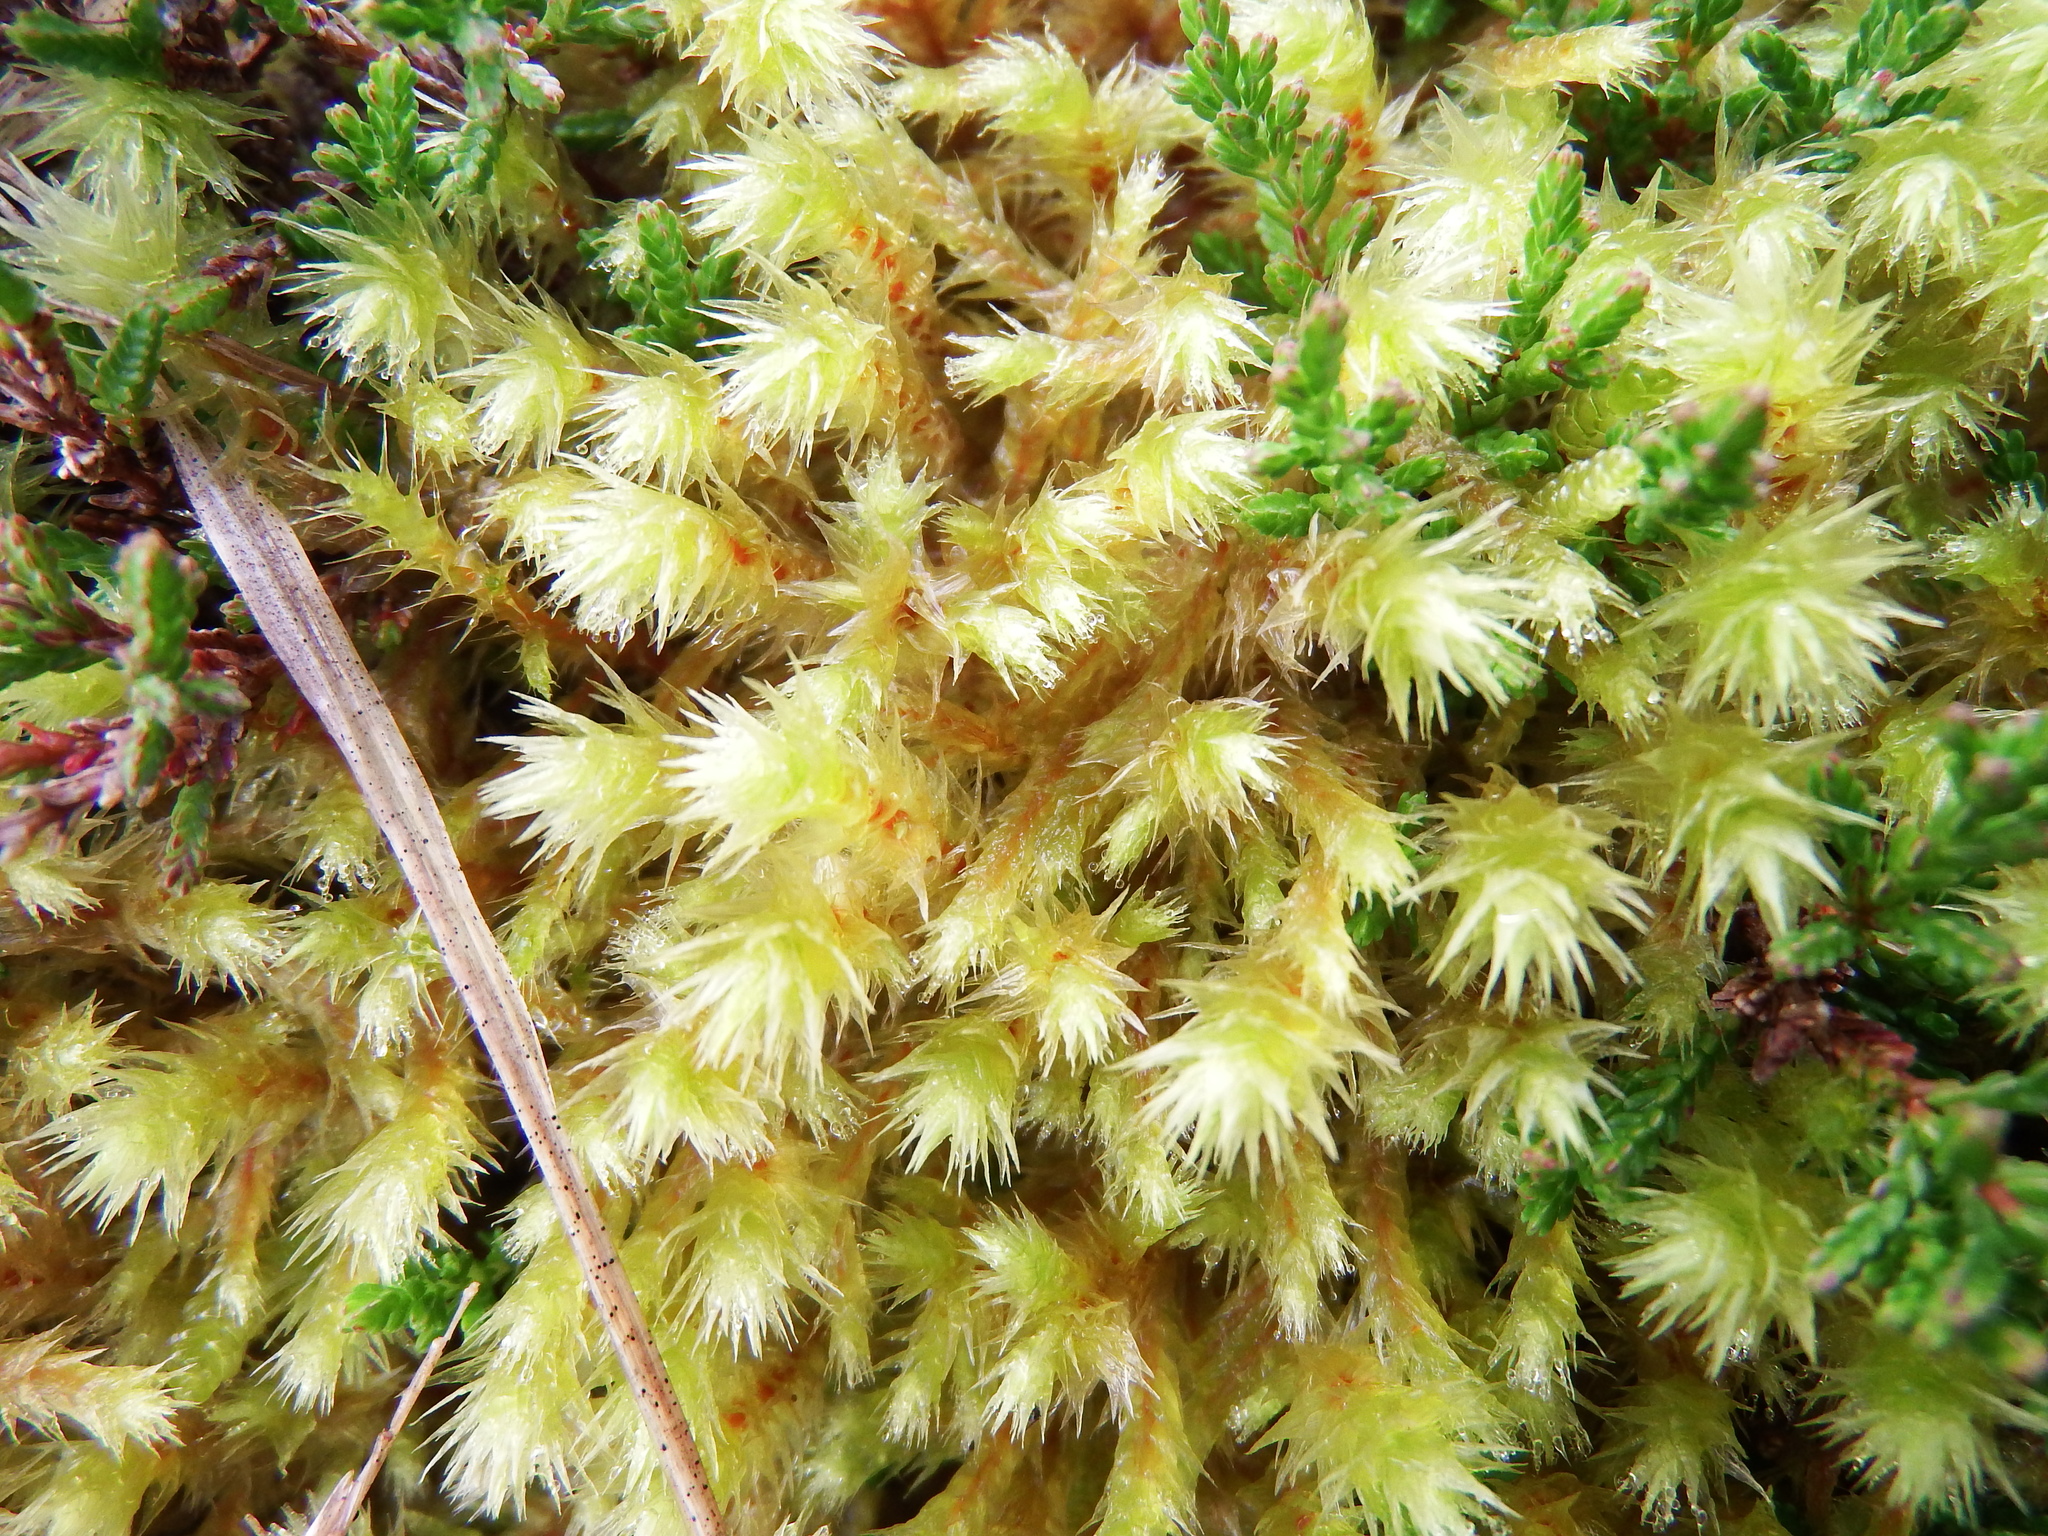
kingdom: Plantae
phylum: Bryophyta
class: Bryopsida
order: Hypnales
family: Hylocomiaceae
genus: Hylocomiadelphus
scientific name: Hylocomiadelphus triquetrus
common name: Rough goose neck moss
